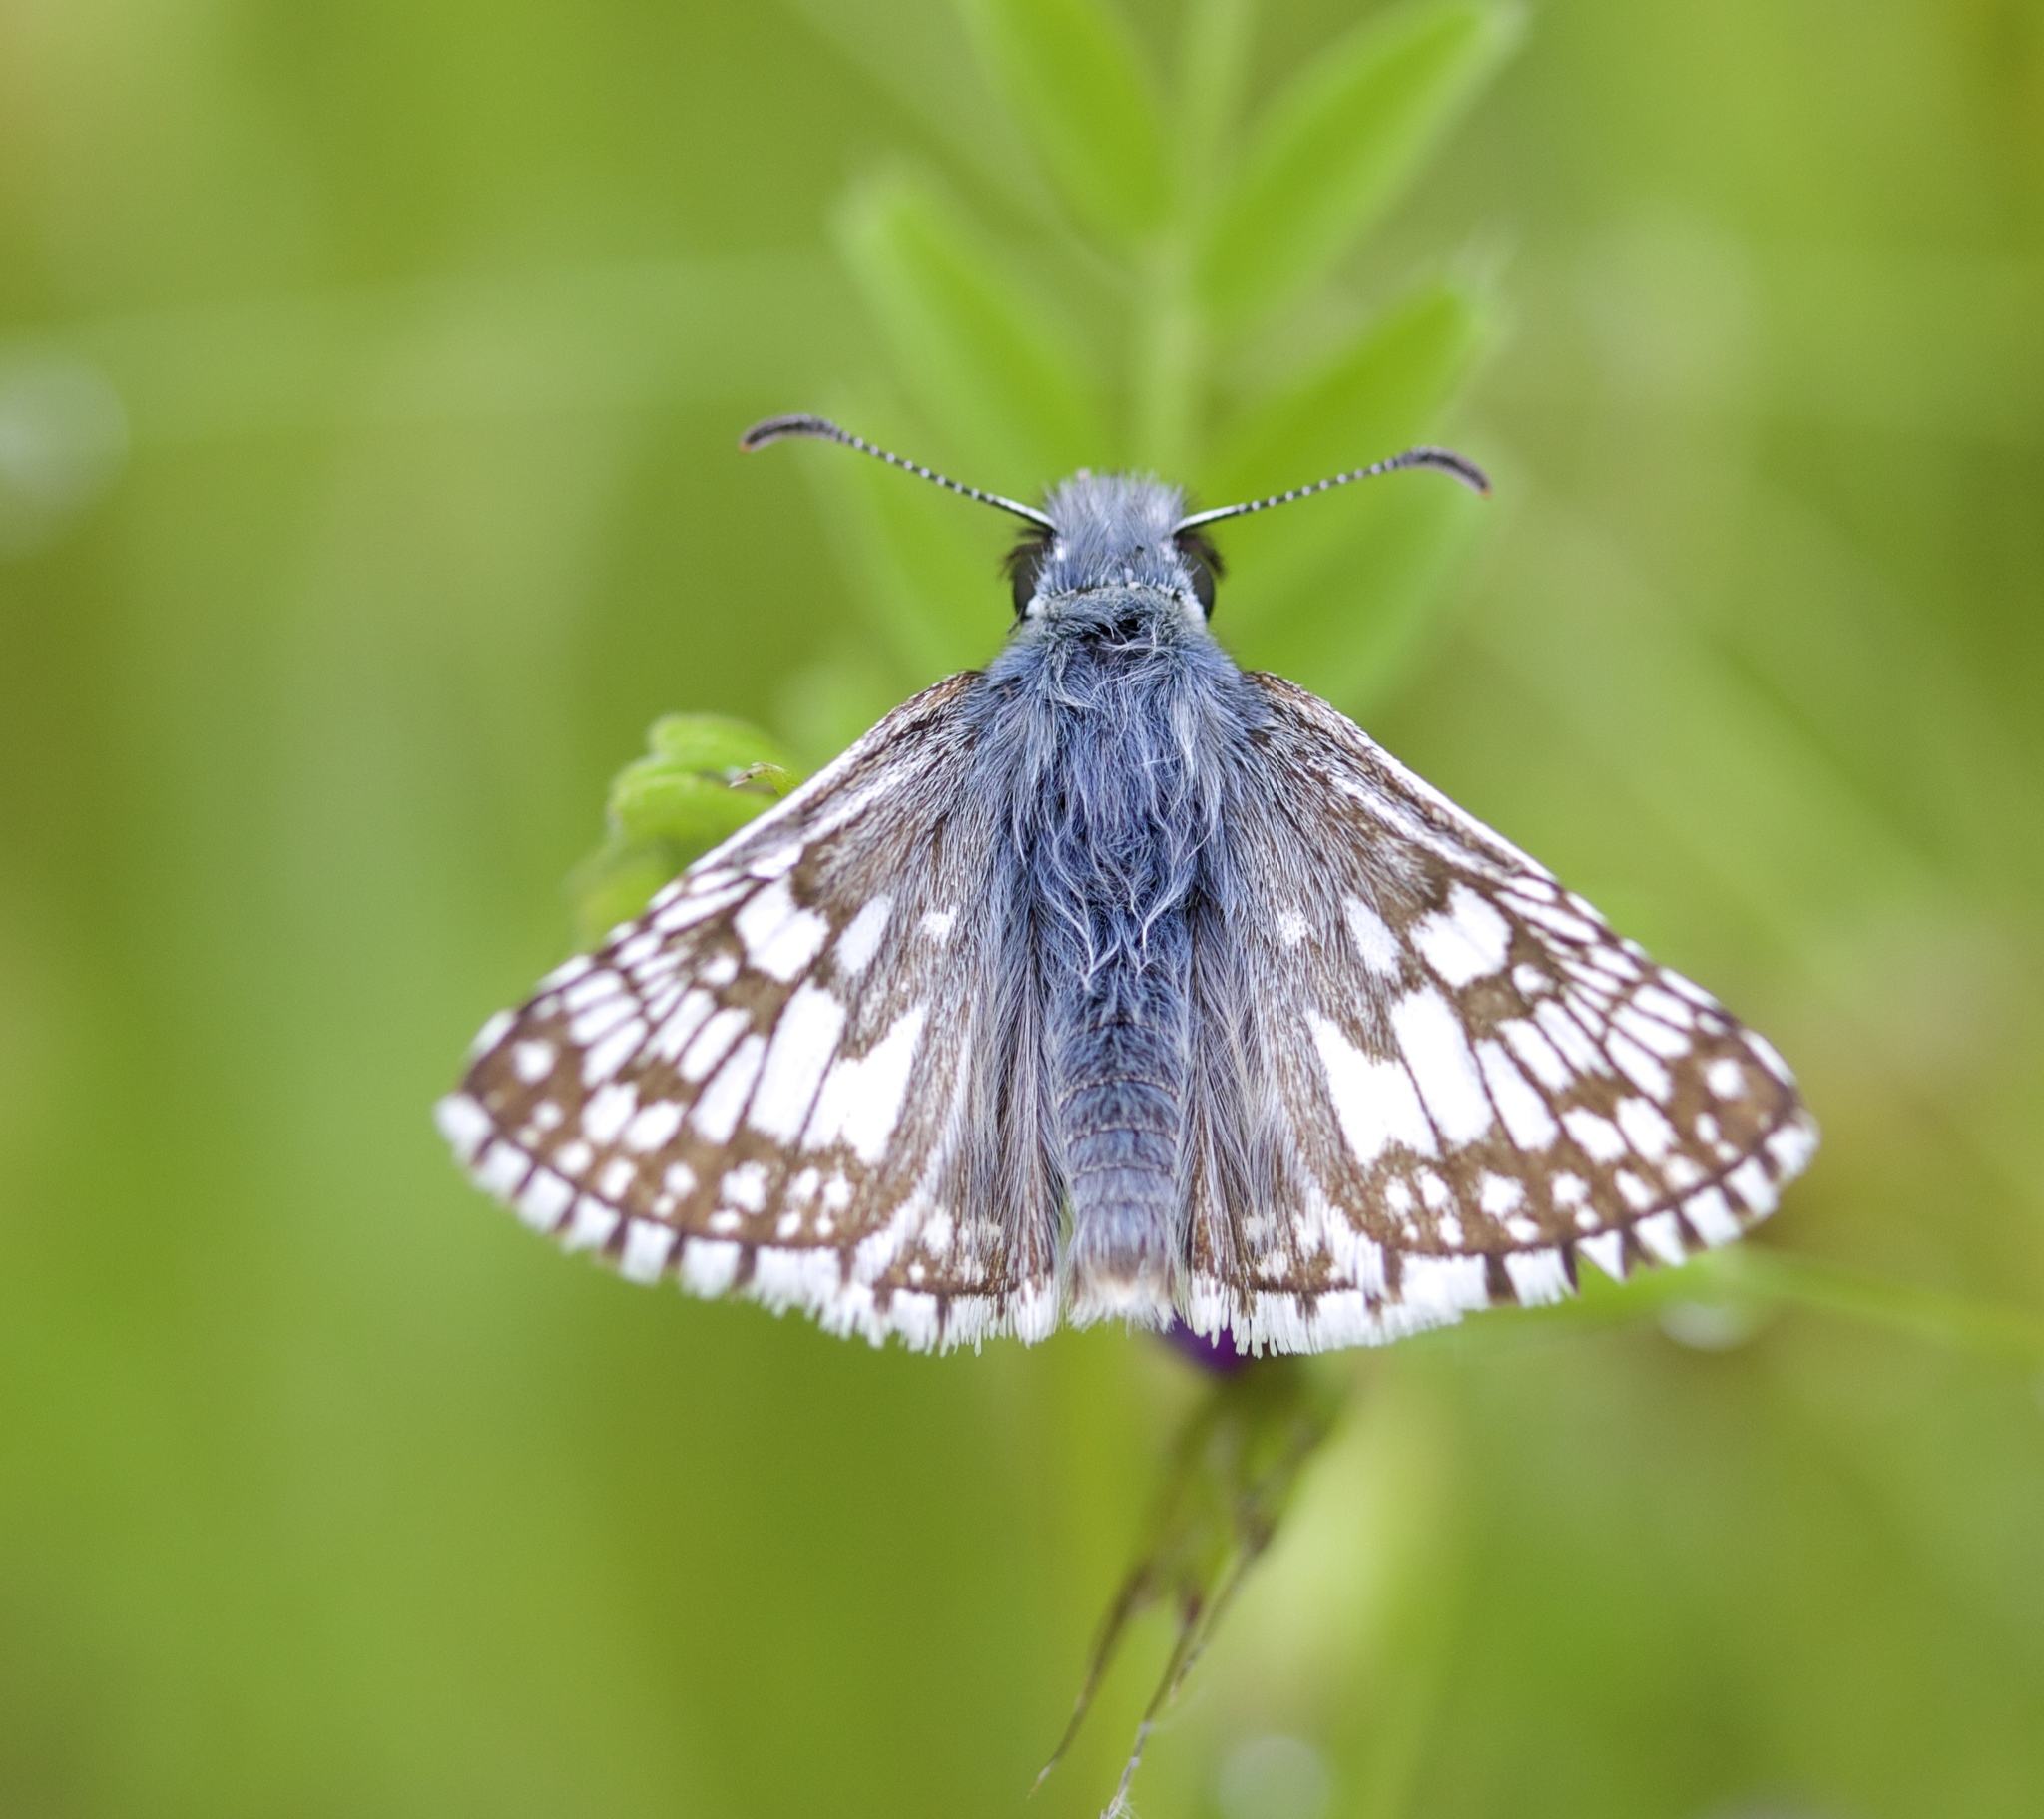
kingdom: Animalia
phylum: Arthropoda
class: Insecta
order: Lepidoptera
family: Hesperiidae
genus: Burnsius
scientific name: Burnsius communis
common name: Common checkered-skipper
